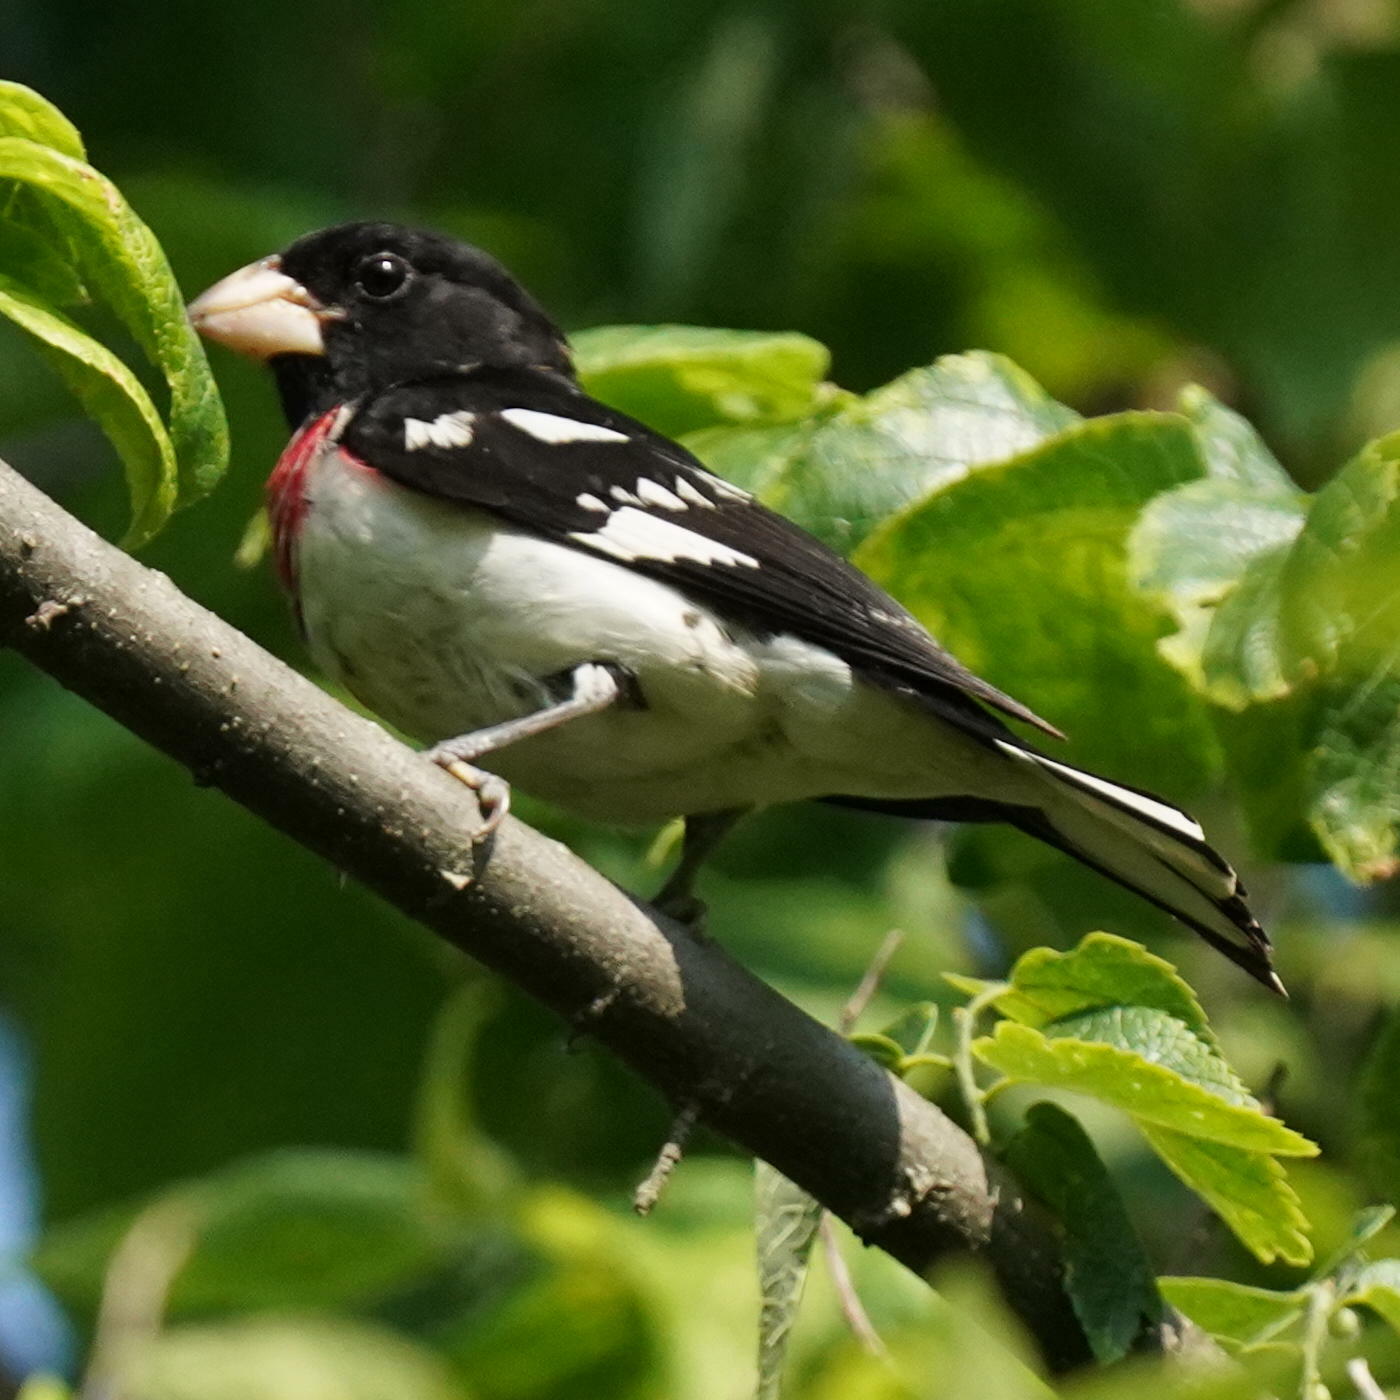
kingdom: Animalia
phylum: Chordata
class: Aves
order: Passeriformes
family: Cardinalidae
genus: Pheucticus
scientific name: Pheucticus ludovicianus
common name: Rose-breasted grosbeak
